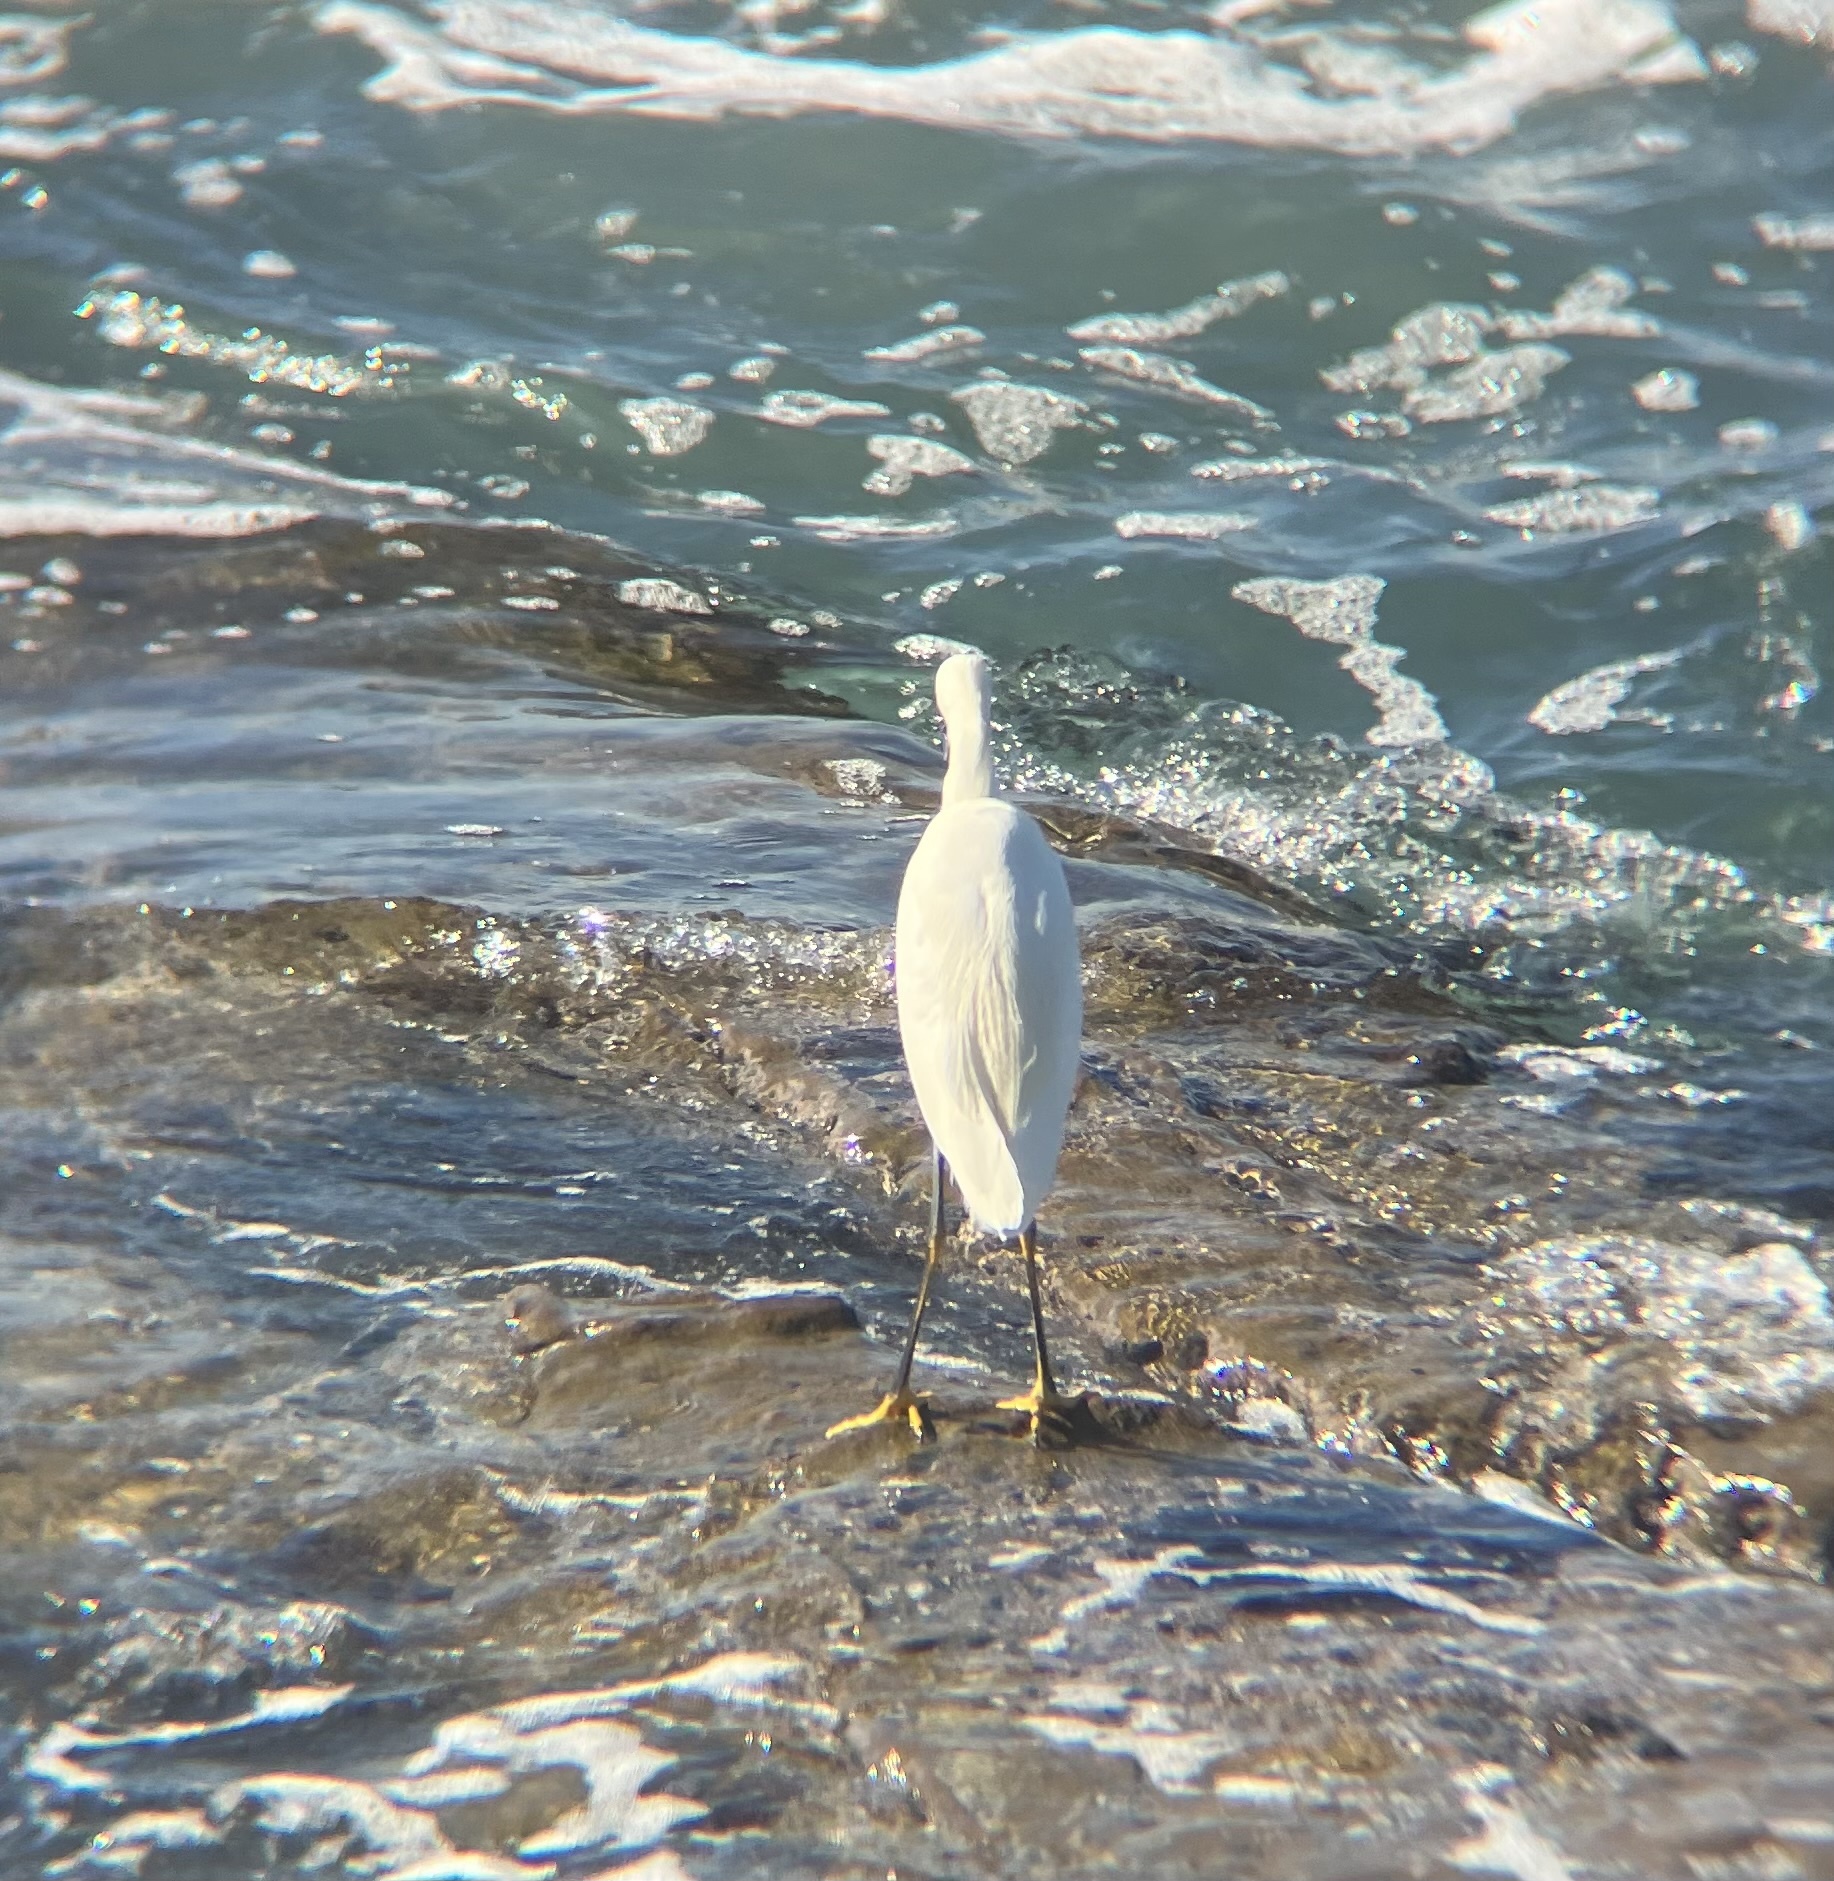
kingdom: Animalia
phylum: Chordata
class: Aves
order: Pelecaniformes
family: Ardeidae
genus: Egretta
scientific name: Egretta thula
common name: Snowy egret
